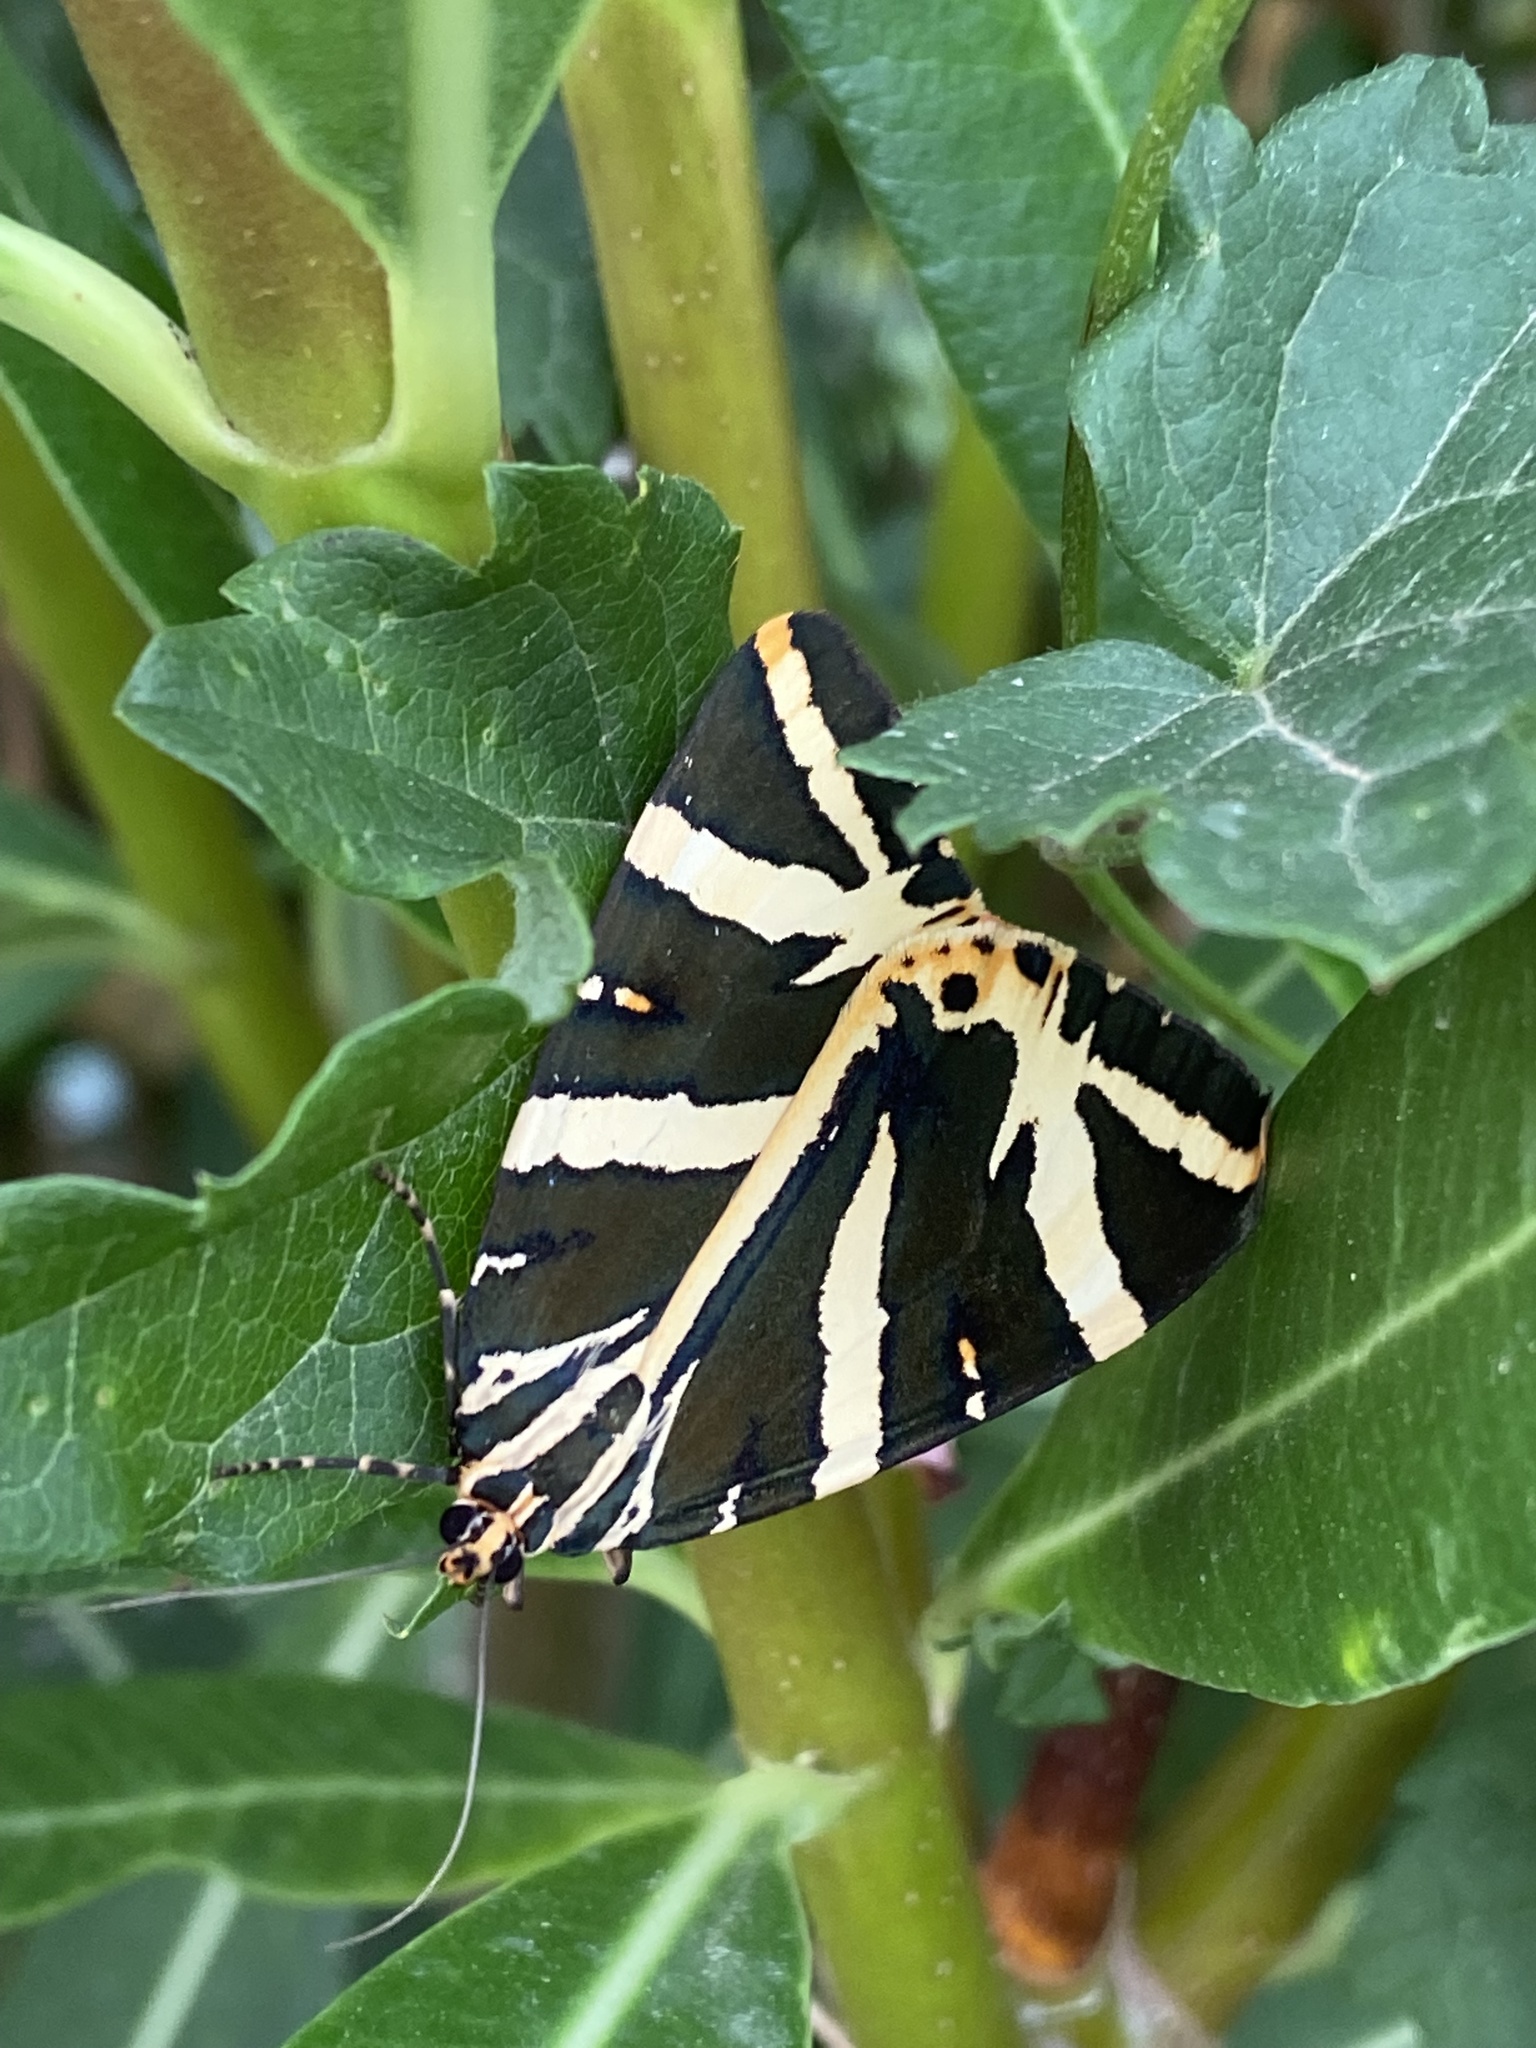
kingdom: Animalia
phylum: Arthropoda
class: Insecta
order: Lepidoptera
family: Erebidae
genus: Euplagia
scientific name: Euplagia quadripunctaria
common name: Jersey tiger
